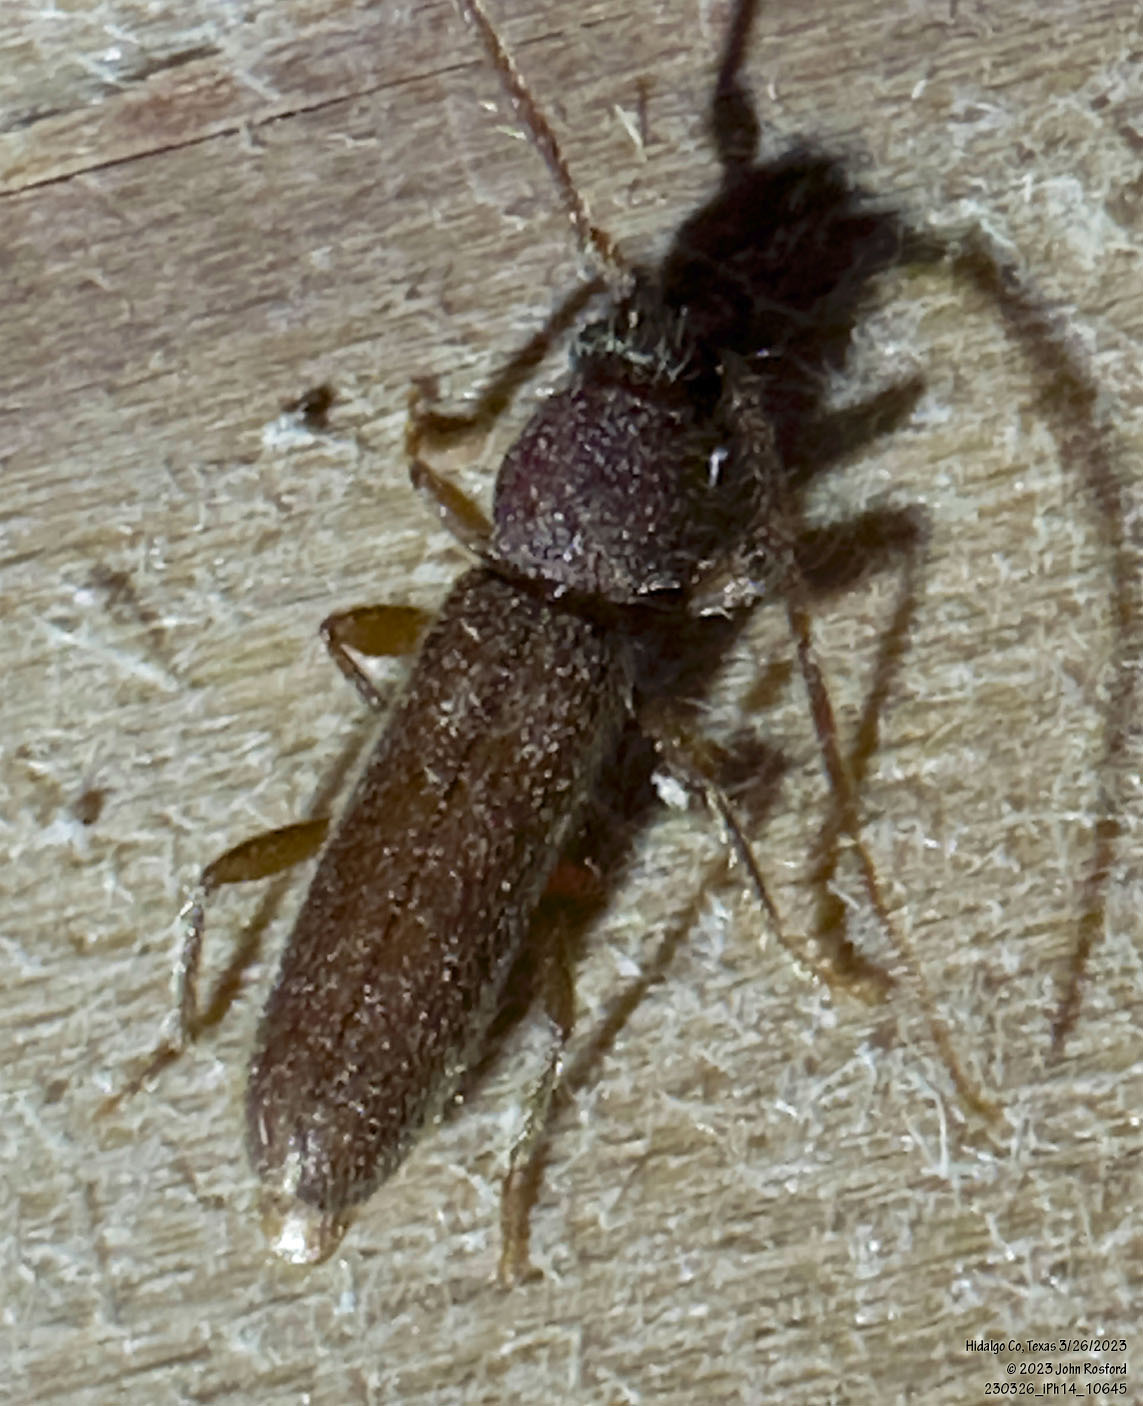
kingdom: Animalia
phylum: Arthropoda
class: Insecta
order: Coleoptera
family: Cerambycidae
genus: Geropa
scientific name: Geropa concolor
